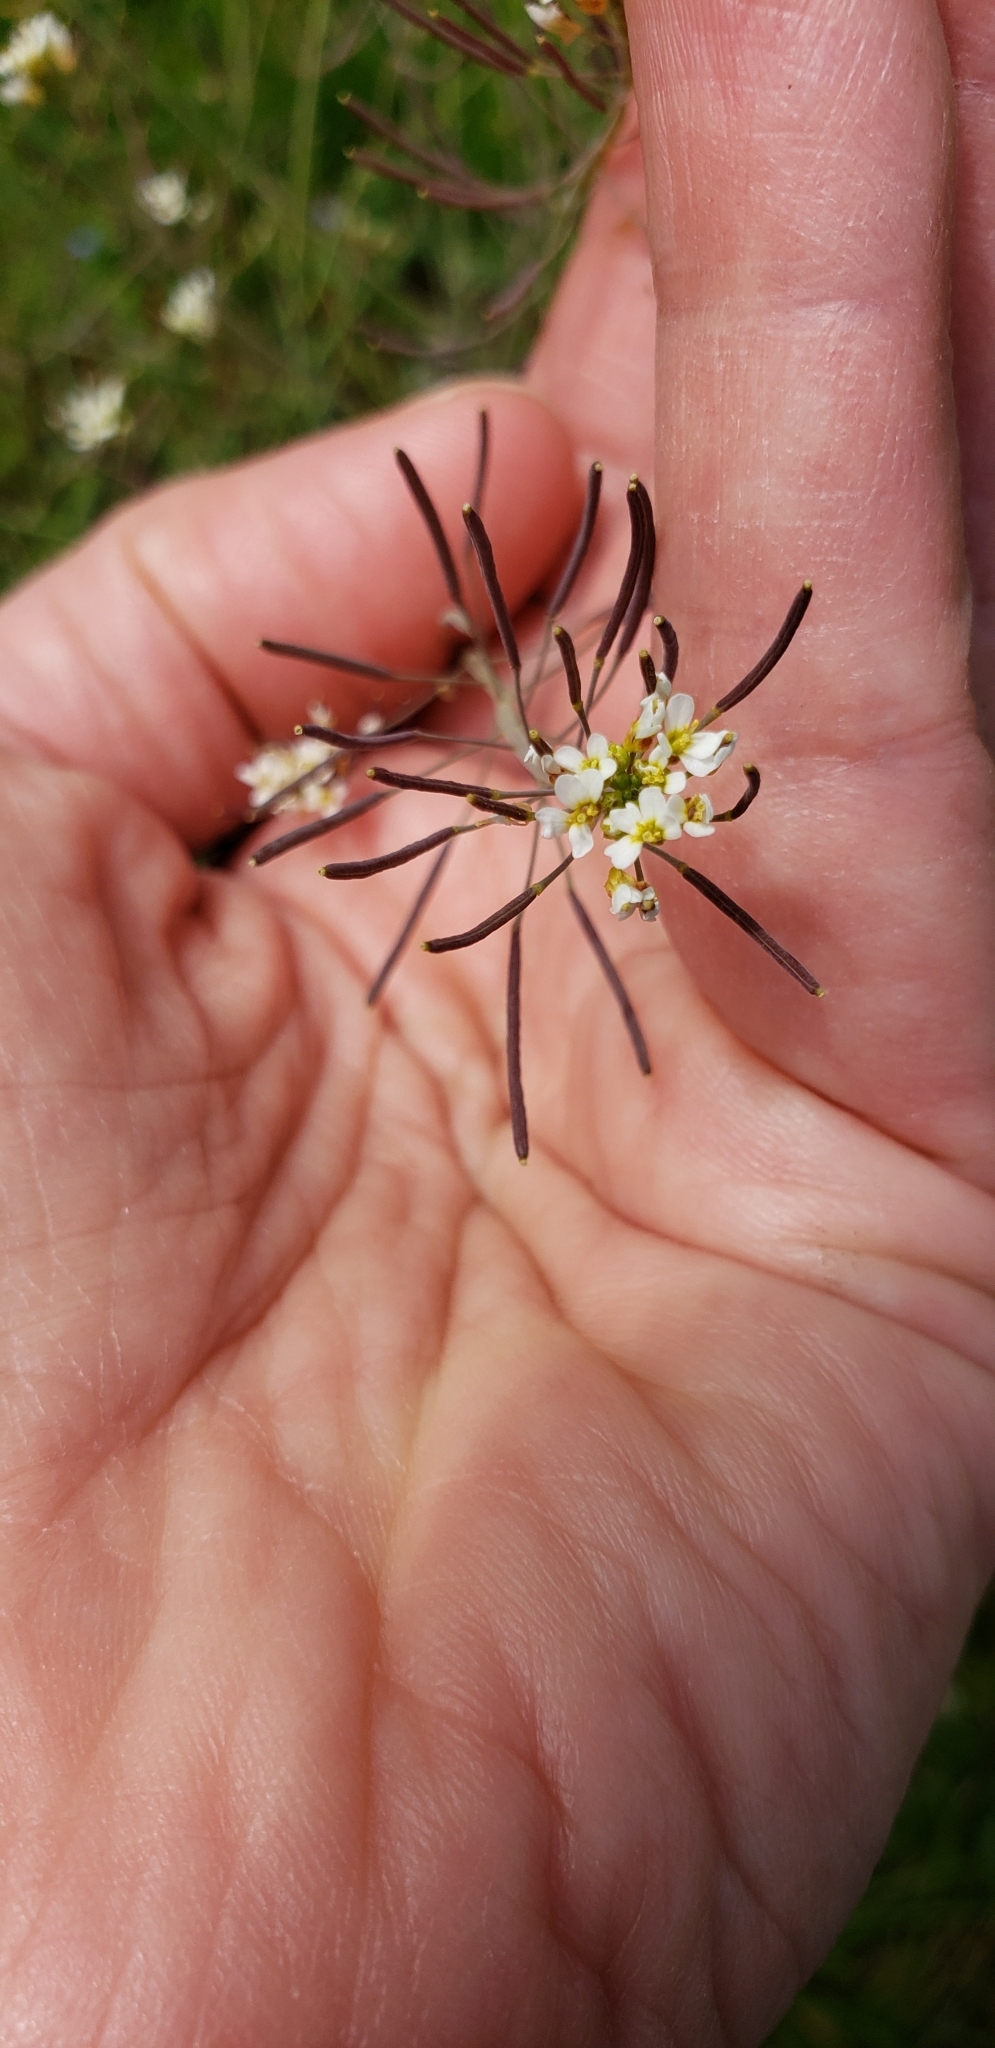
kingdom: Plantae
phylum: Tracheophyta
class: Magnoliopsida
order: Brassicales
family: Brassicaceae
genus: Arabidopsis
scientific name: Arabidopsis thaliana
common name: Thale cress
